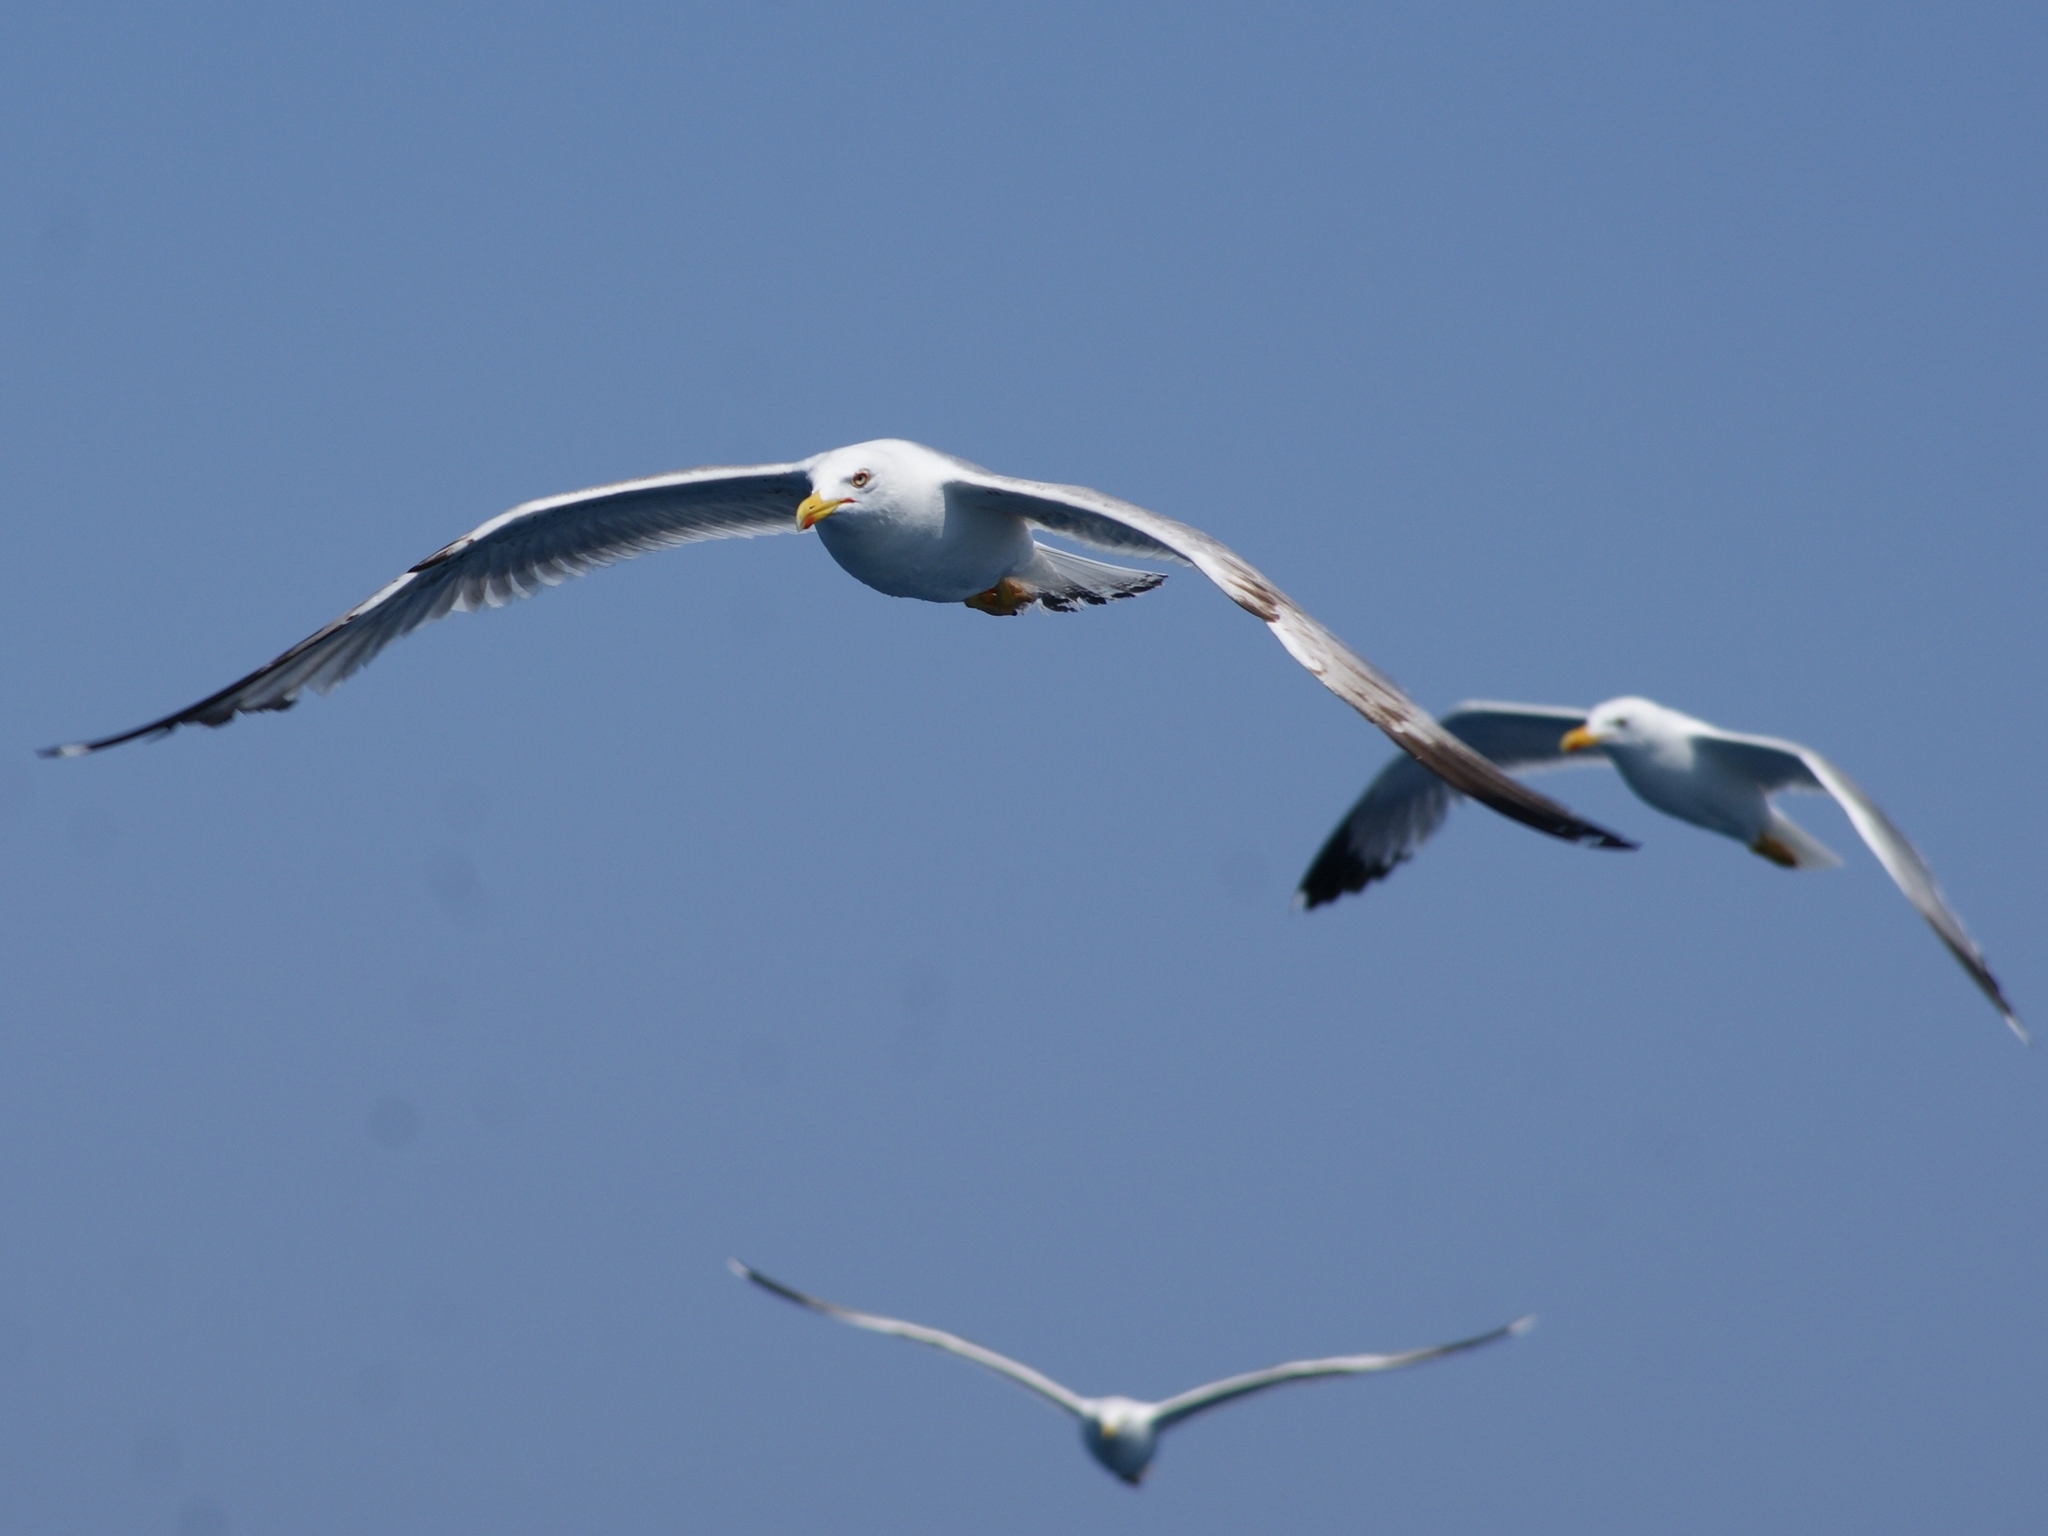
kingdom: Animalia
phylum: Chordata
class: Aves
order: Charadriiformes
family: Laridae
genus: Larus
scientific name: Larus michahellis
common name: Yellow-legged gull
